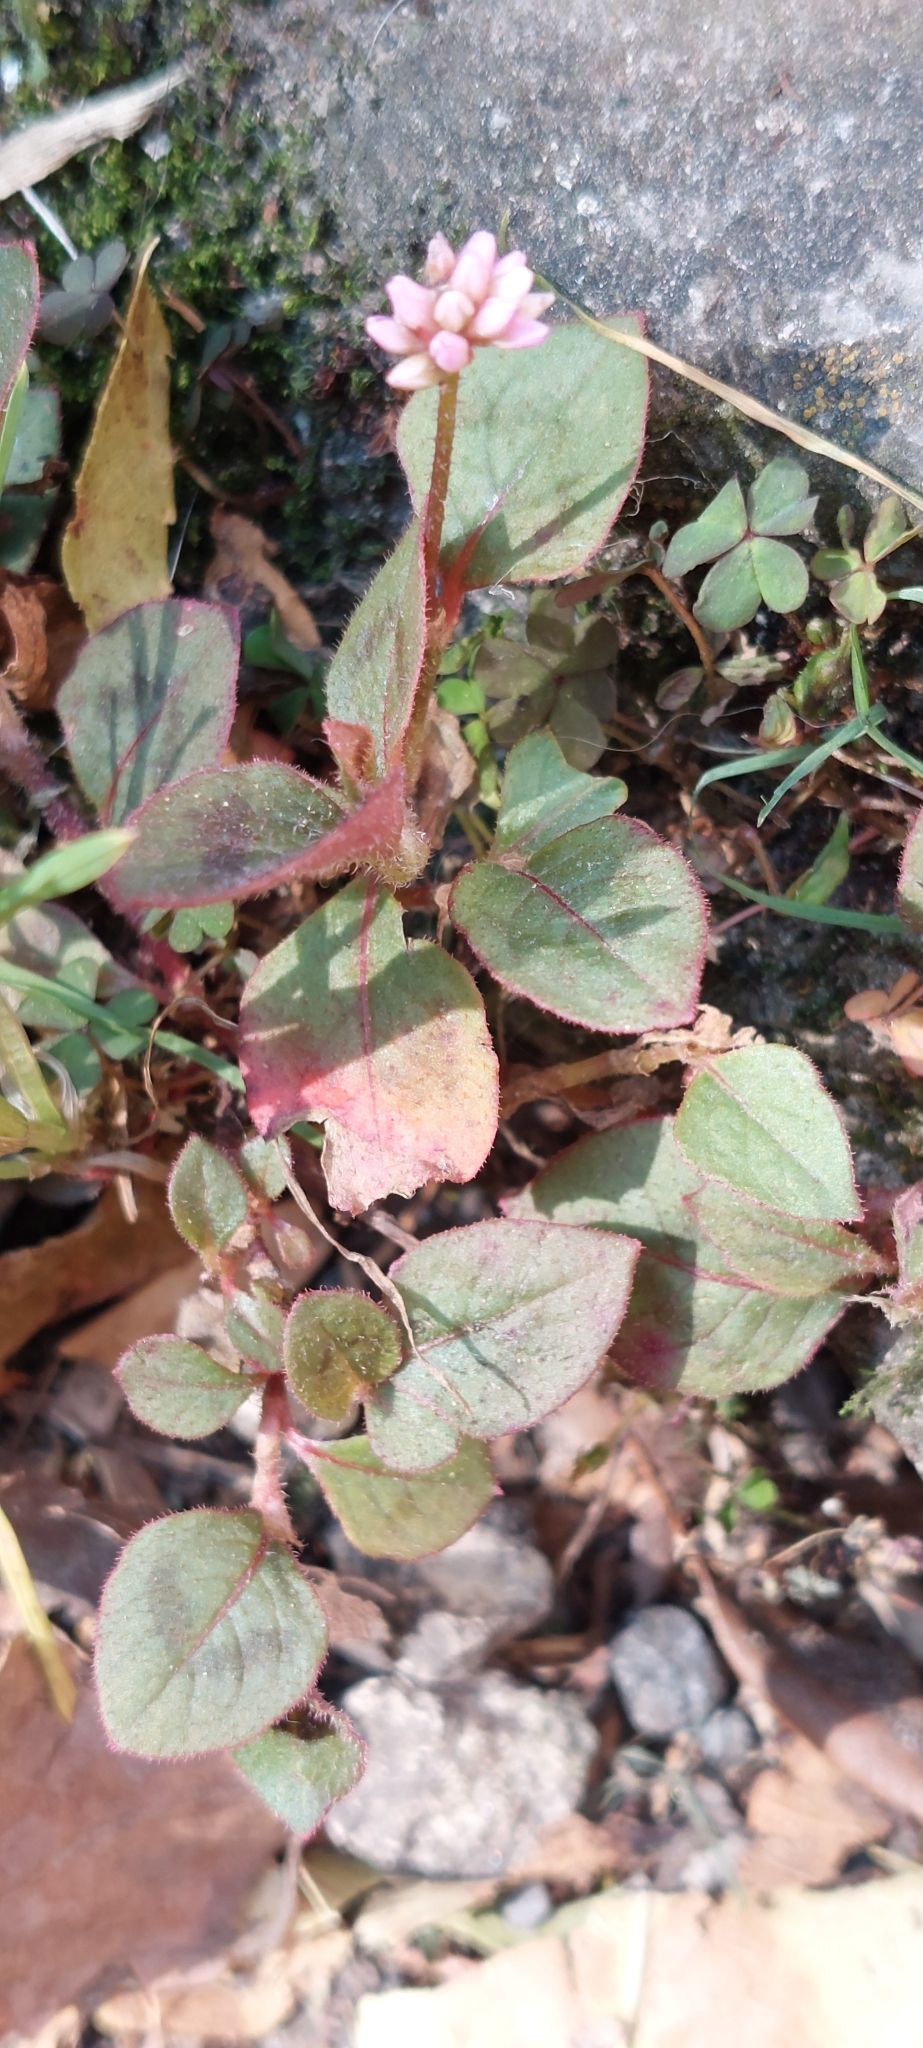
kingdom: Plantae
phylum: Tracheophyta
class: Magnoliopsida
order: Caryophyllales
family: Polygonaceae
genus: Persicaria
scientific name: Persicaria capitata
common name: Pinkhead smartweed
